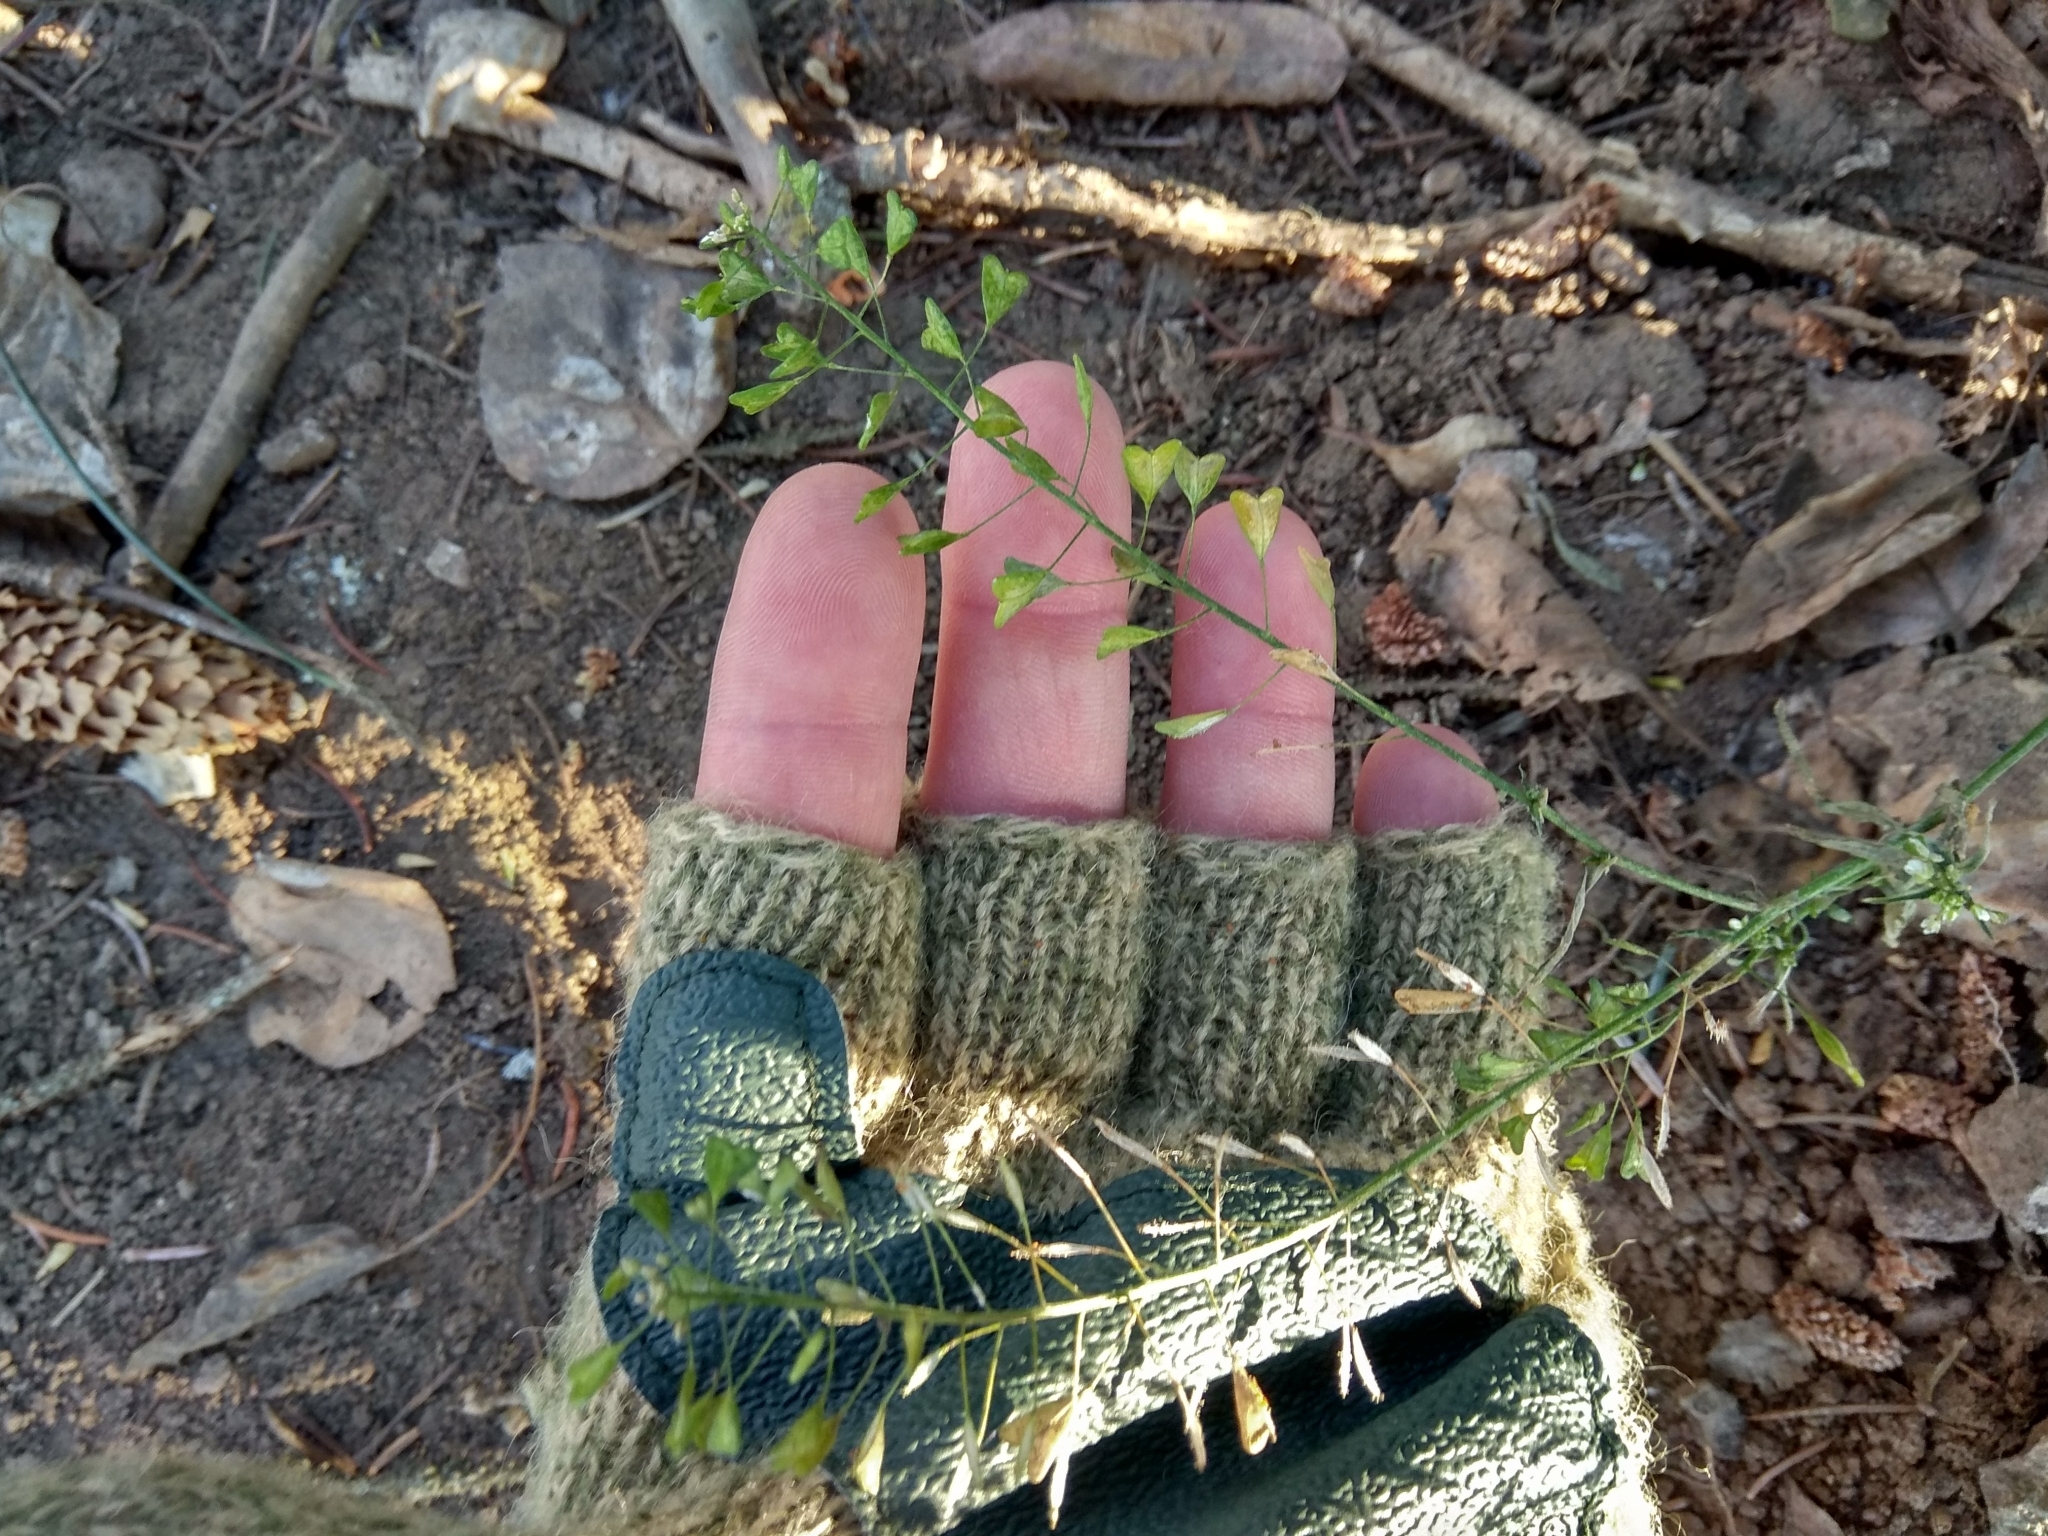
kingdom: Plantae
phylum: Tracheophyta
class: Magnoliopsida
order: Brassicales
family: Brassicaceae
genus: Capsella
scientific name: Capsella bursa-pastoris
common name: Shepherd's purse
